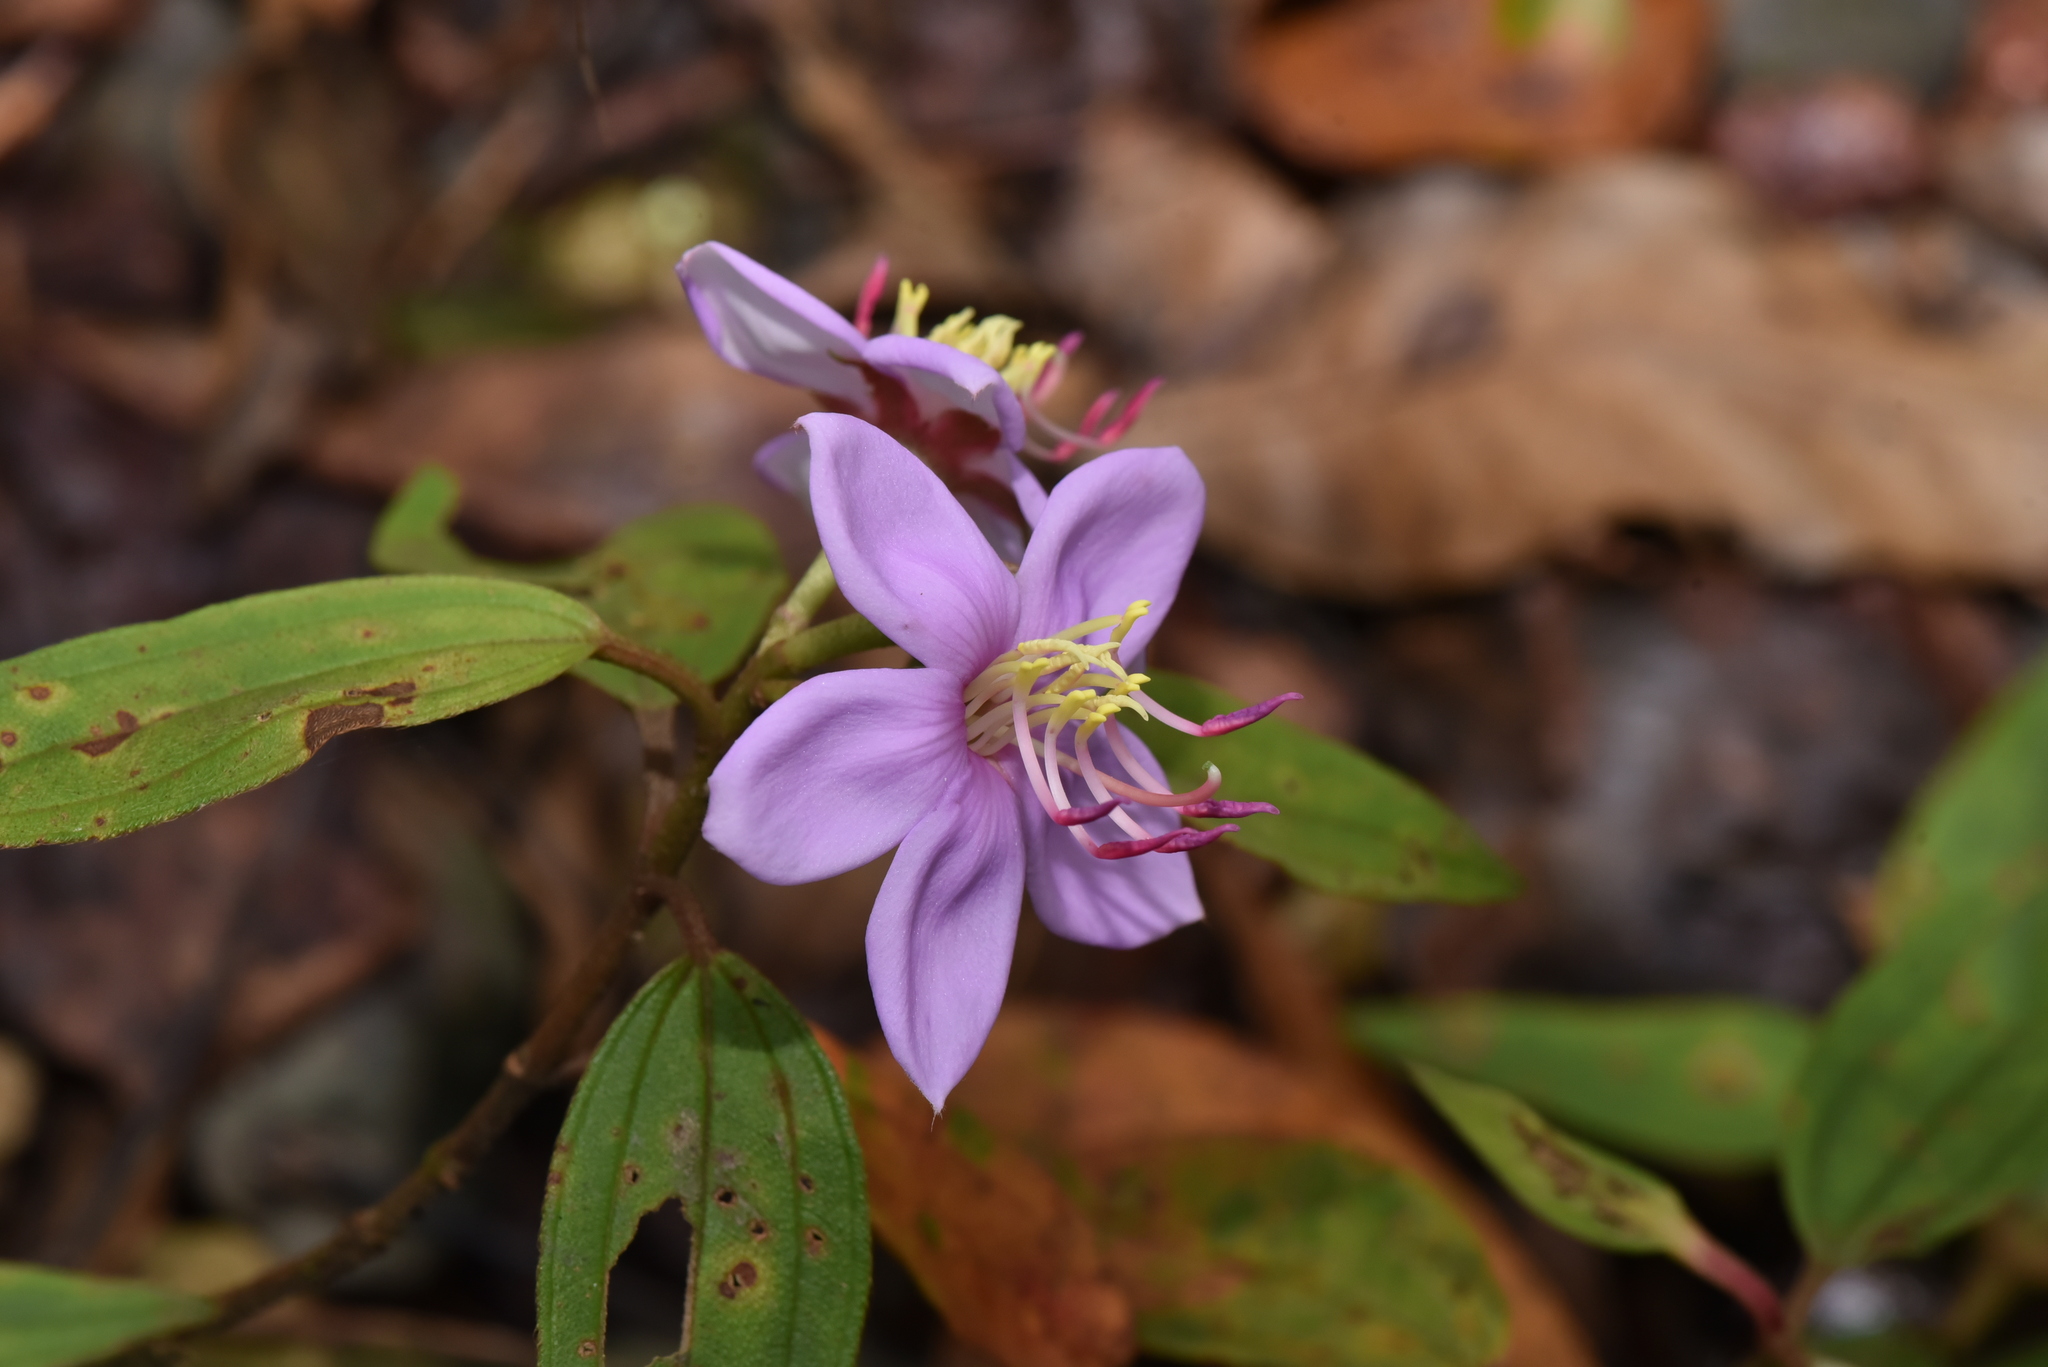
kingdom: Plantae
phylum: Tracheophyta
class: Magnoliopsida
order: Myrtales
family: Melastomataceae
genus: Melastoma
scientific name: Melastoma malabathricum
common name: Indian-rhododendron
